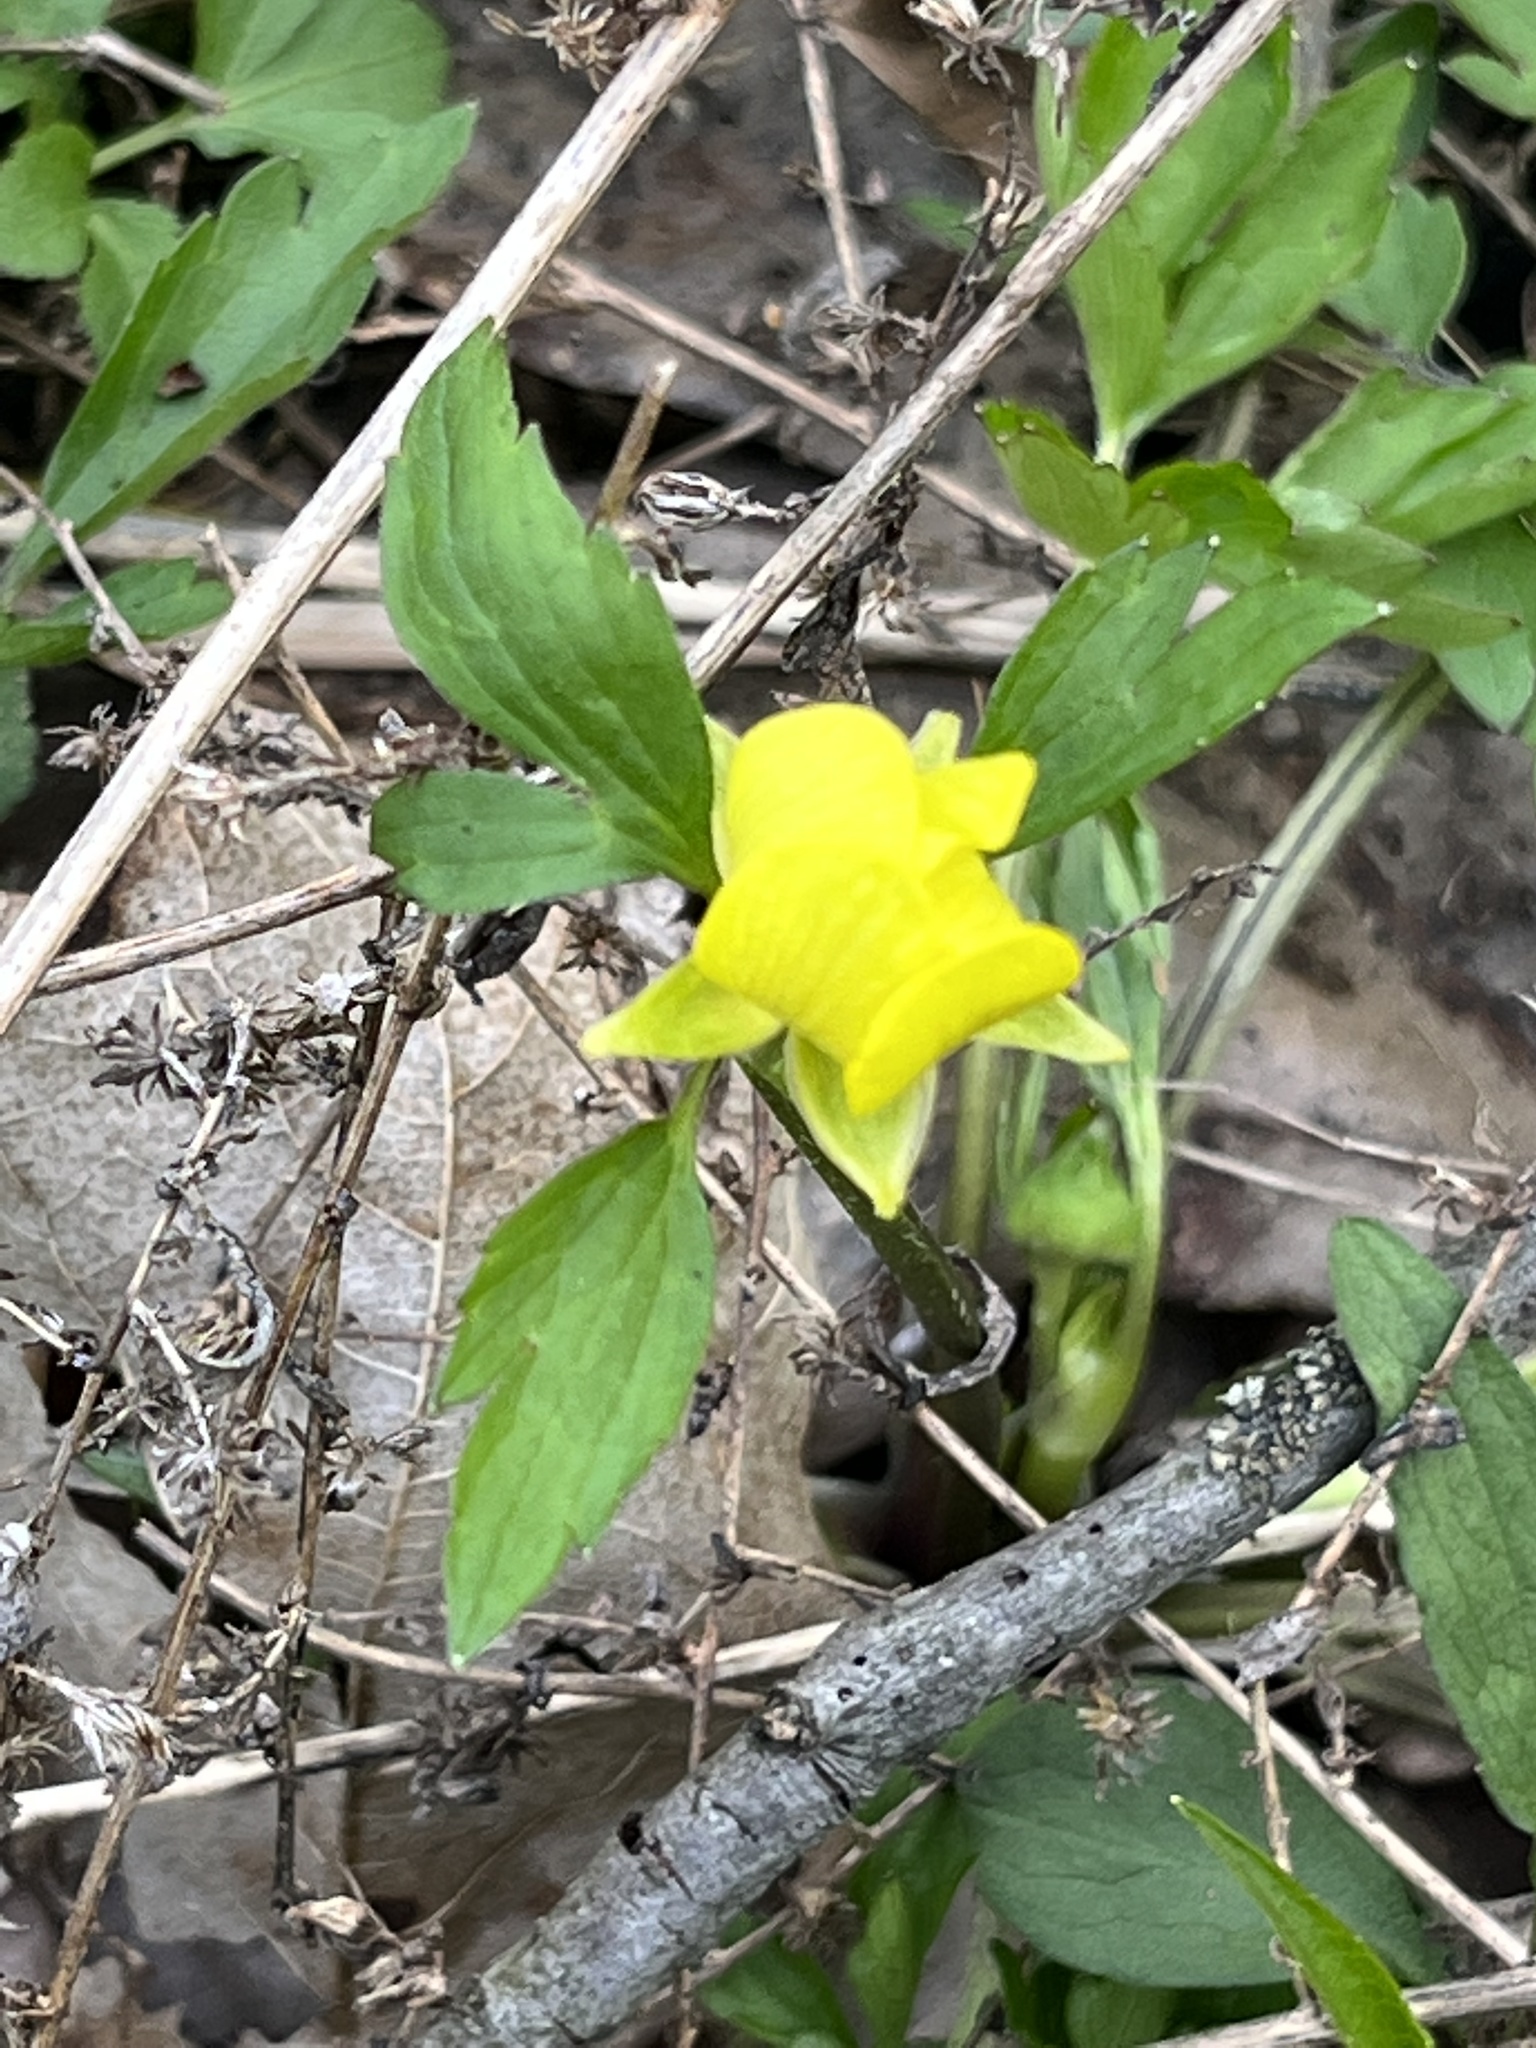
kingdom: Plantae
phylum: Tracheophyta
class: Magnoliopsida
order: Ranunculales
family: Ranunculaceae
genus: Ranunculus
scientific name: Ranunculus hispidus
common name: Bristly buttercup
